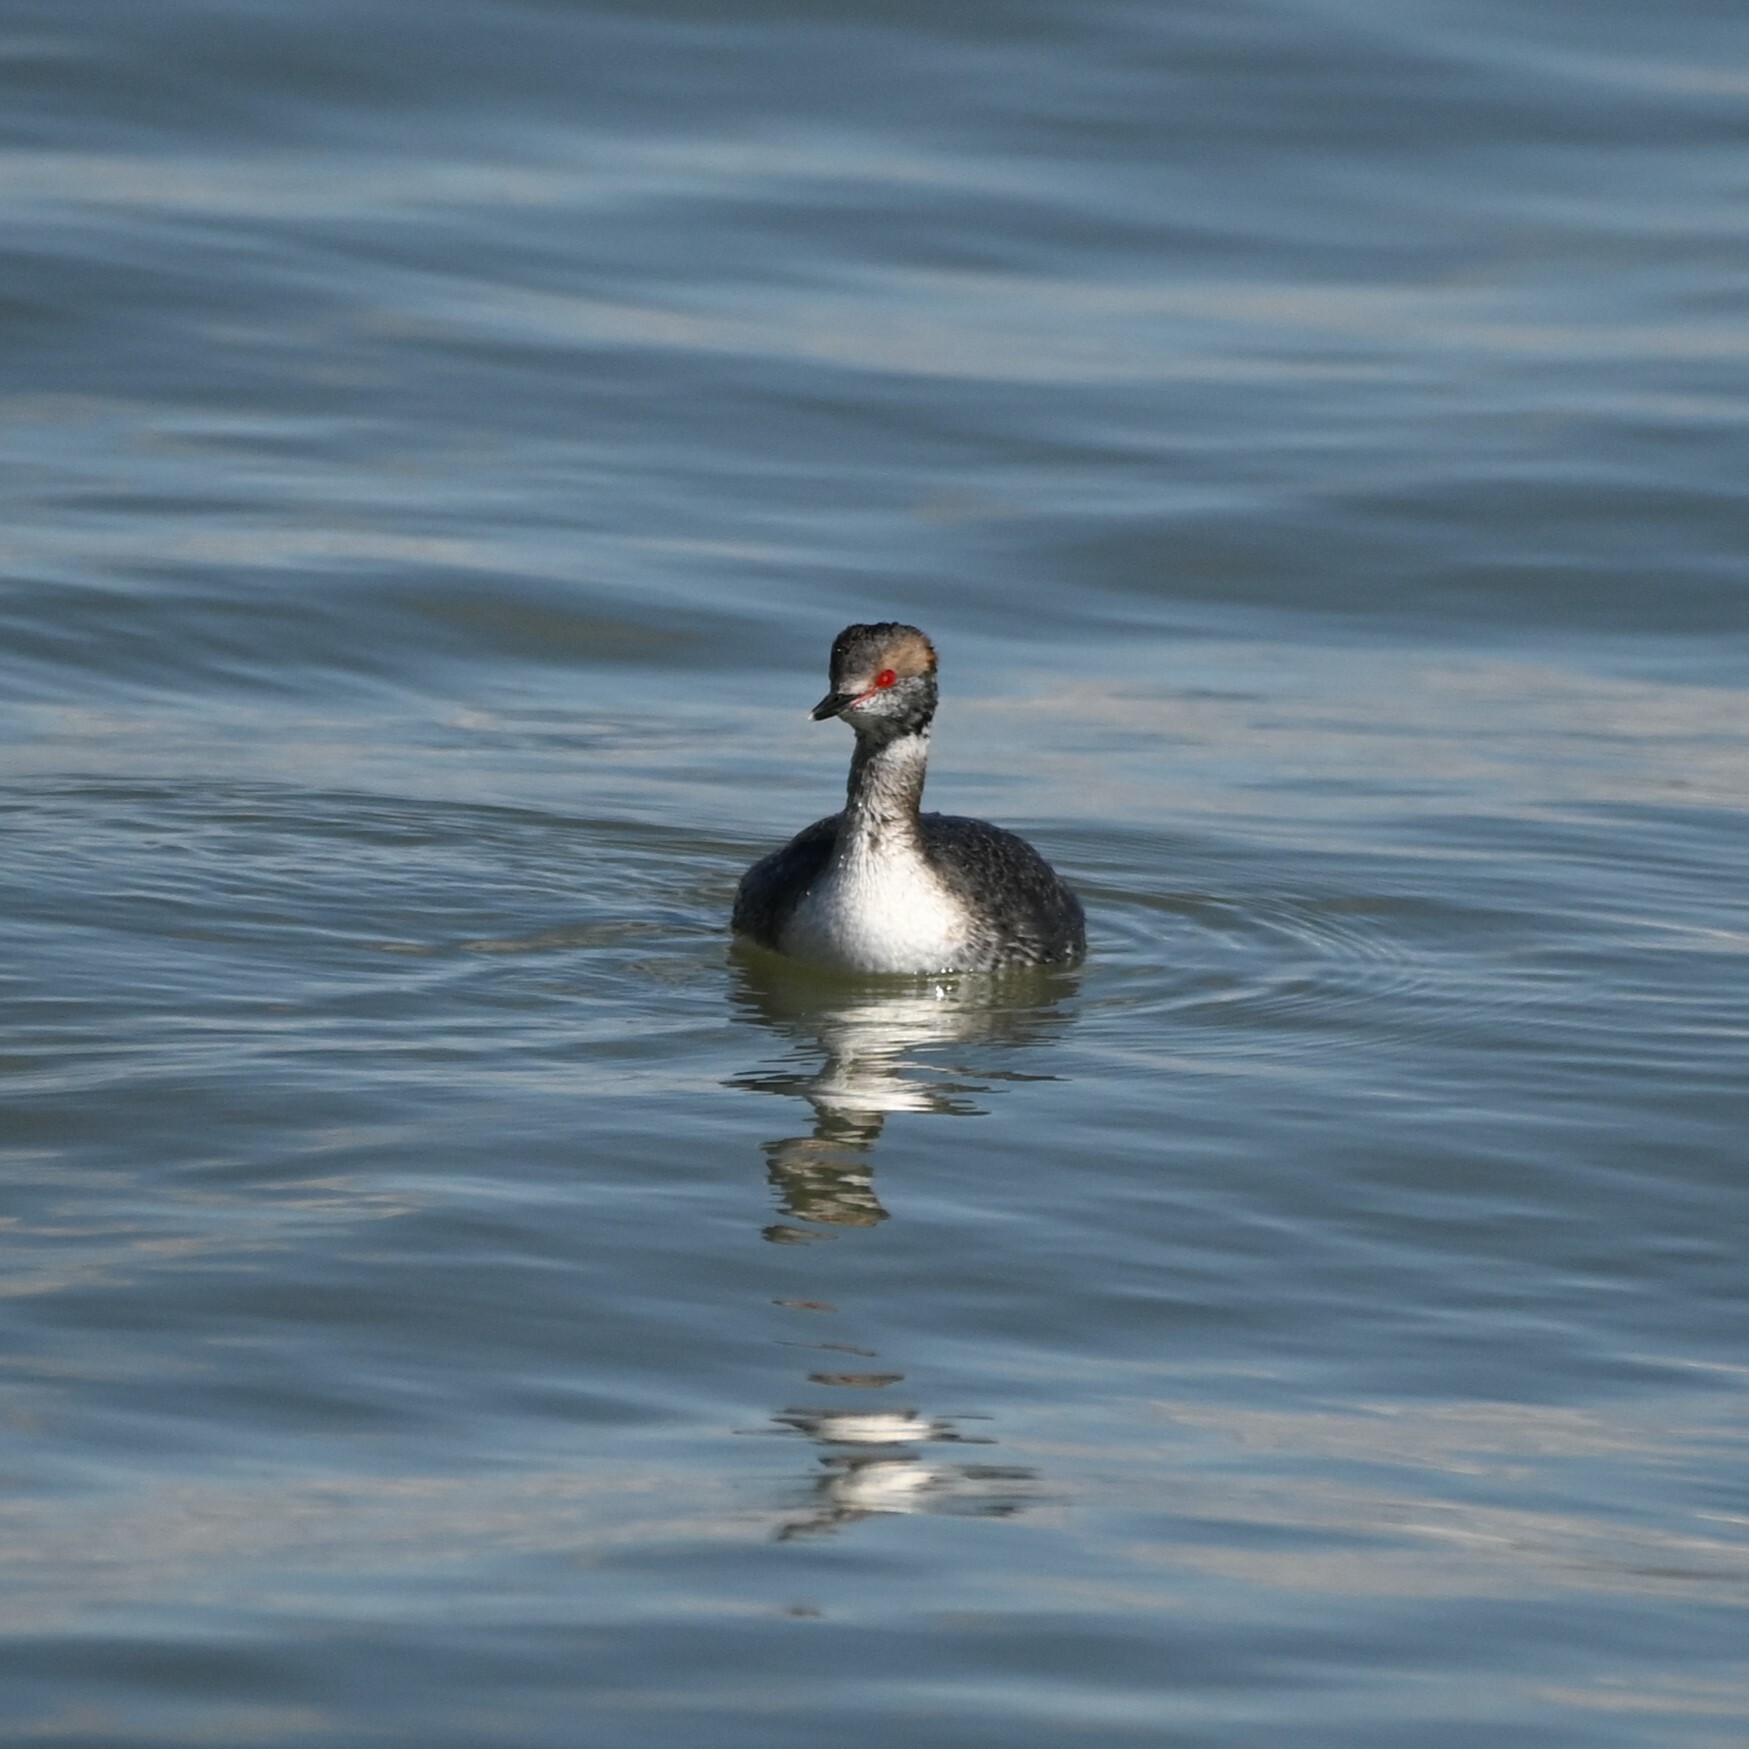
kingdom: Animalia
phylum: Chordata
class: Aves
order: Podicipediformes
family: Podicipedidae
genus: Podiceps
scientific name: Podiceps auritus
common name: Horned grebe
